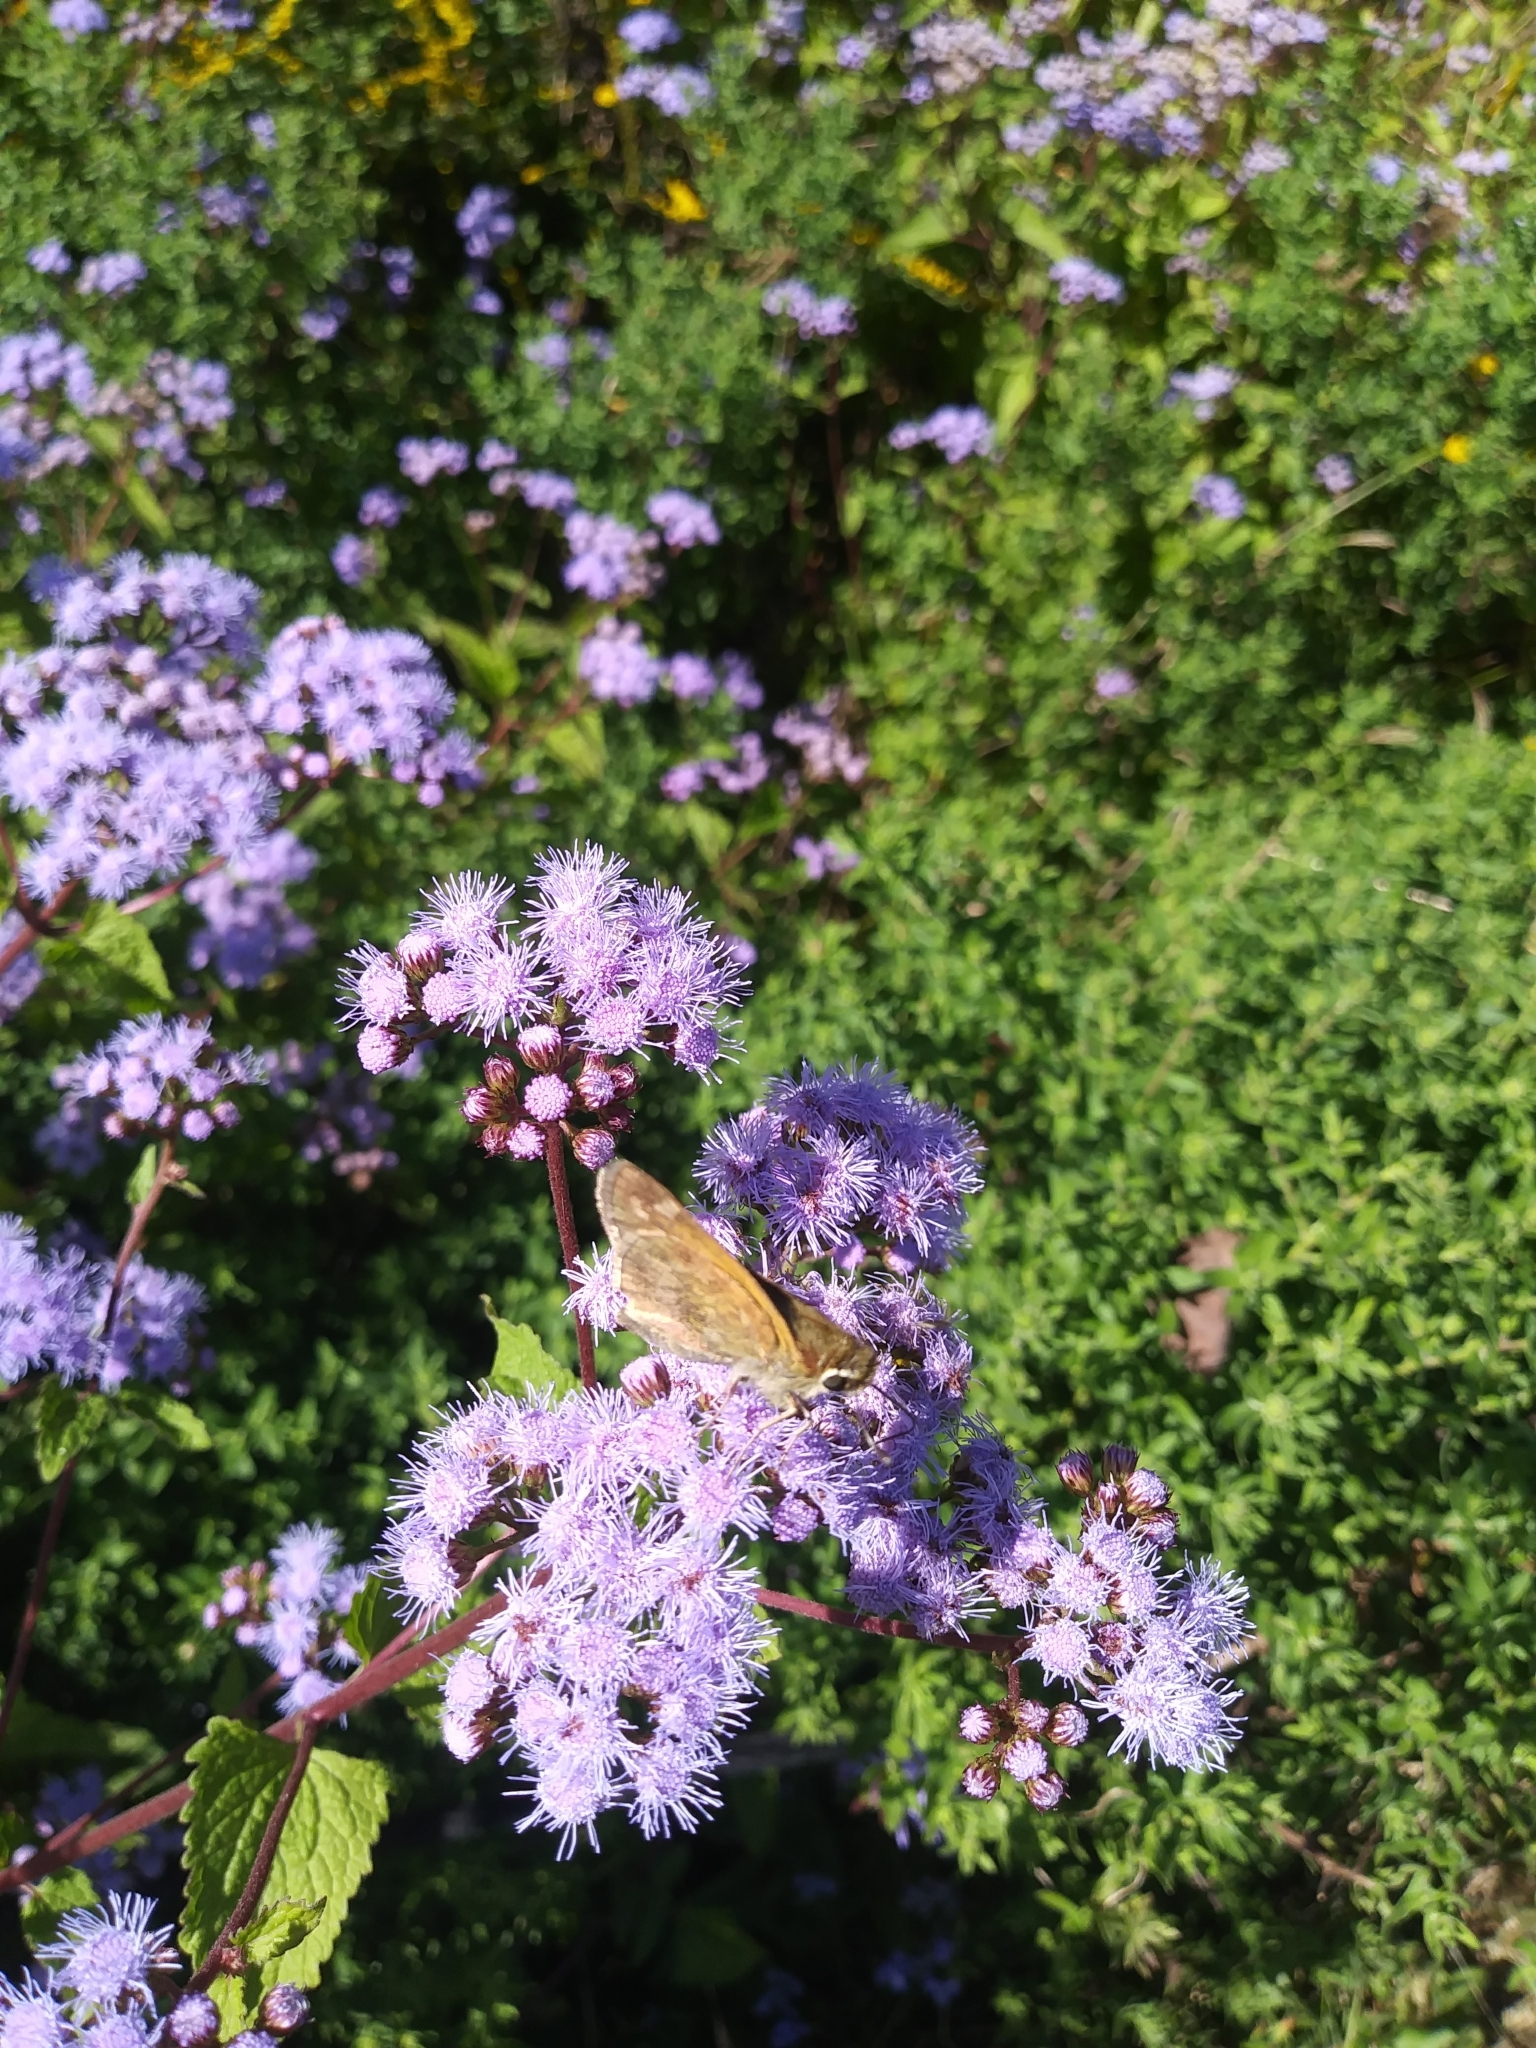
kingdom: Animalia
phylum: Arthropoda
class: Insecta
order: Lepidoptera
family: Hesperiidae
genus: Atalopedes
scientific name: Atalopedes
